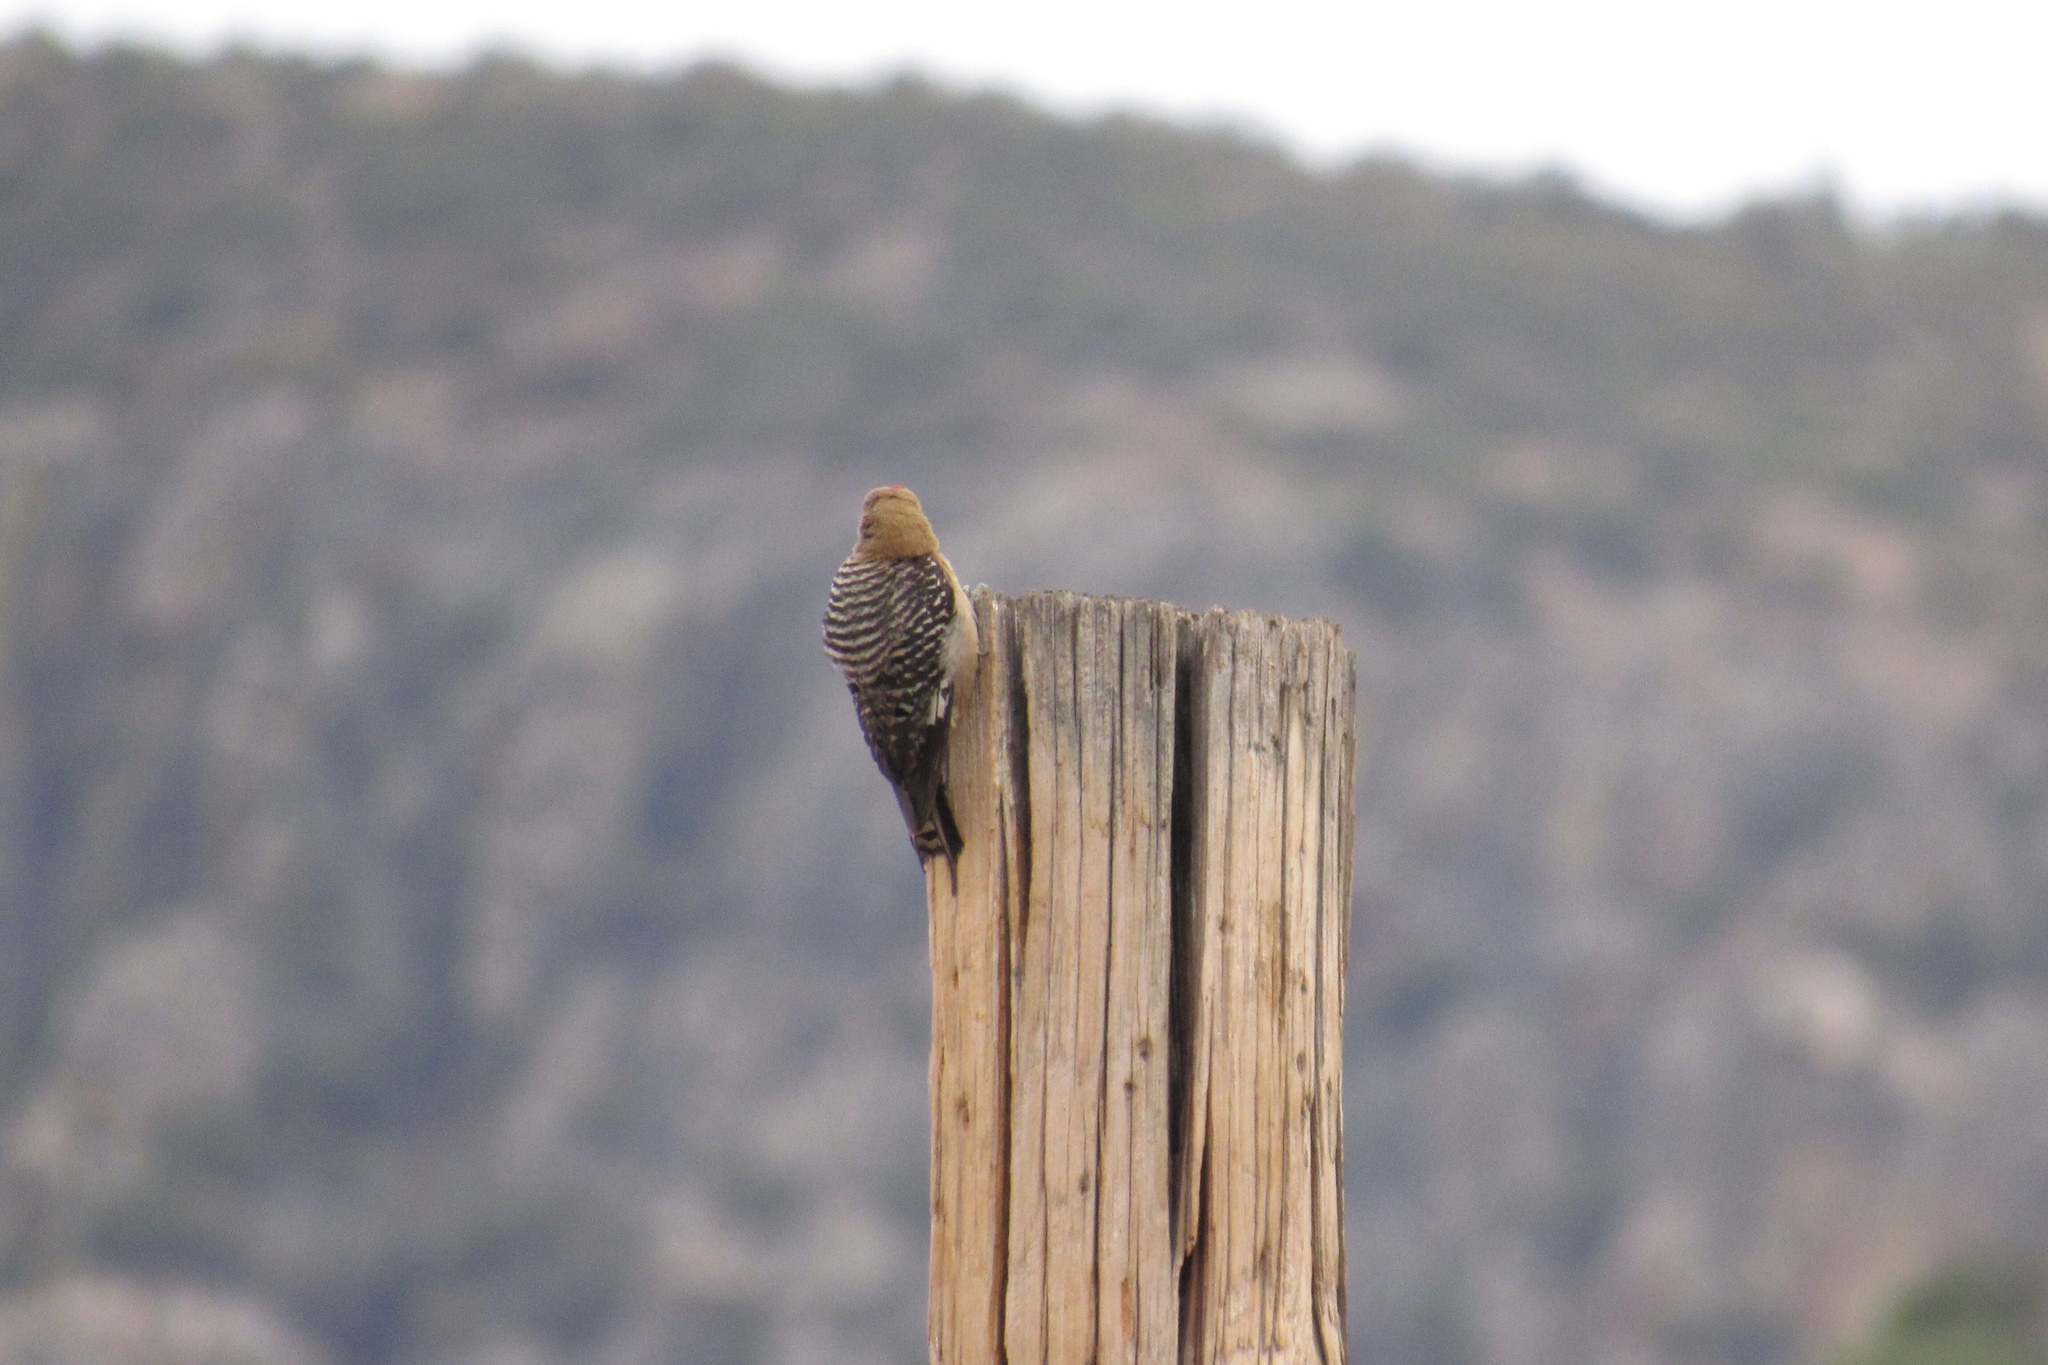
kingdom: Animalia
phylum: Chordata
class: Aves
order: Piciformes
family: Picidae
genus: Melanerpes
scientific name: Melanerpes uropygialis
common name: Gila woodpecker
